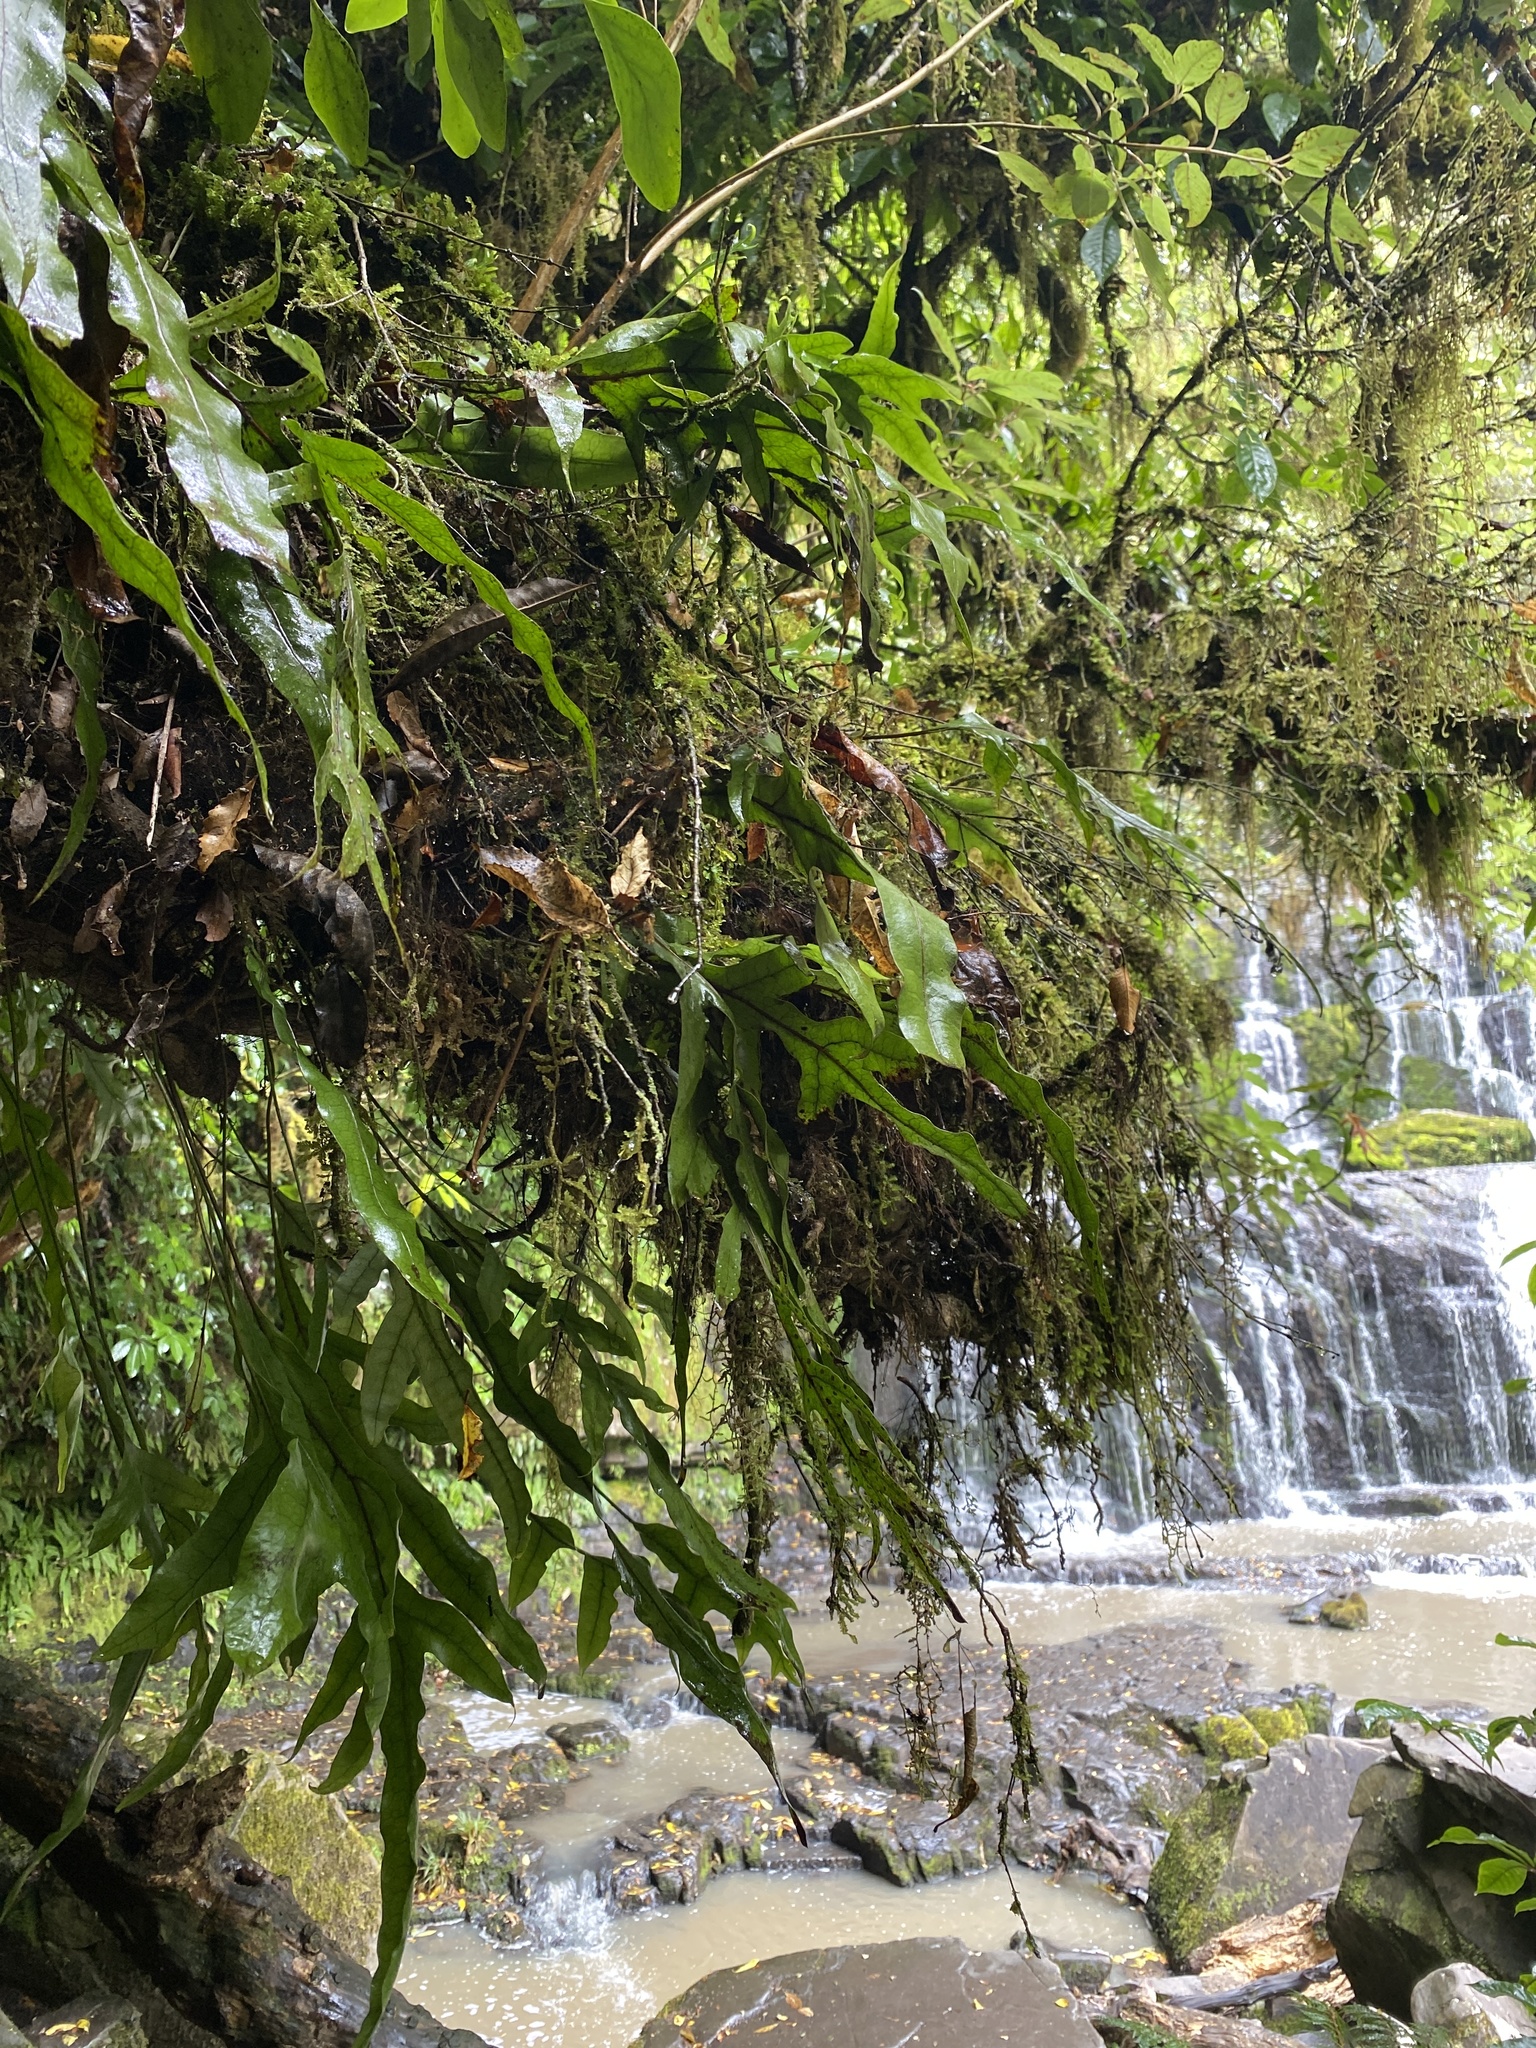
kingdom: Plantae
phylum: Tracheophyta
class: Polypodiopsida
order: Polypodiales
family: Polypodiaceae
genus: Lecanopteris
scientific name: Lecanopteris pustulata
